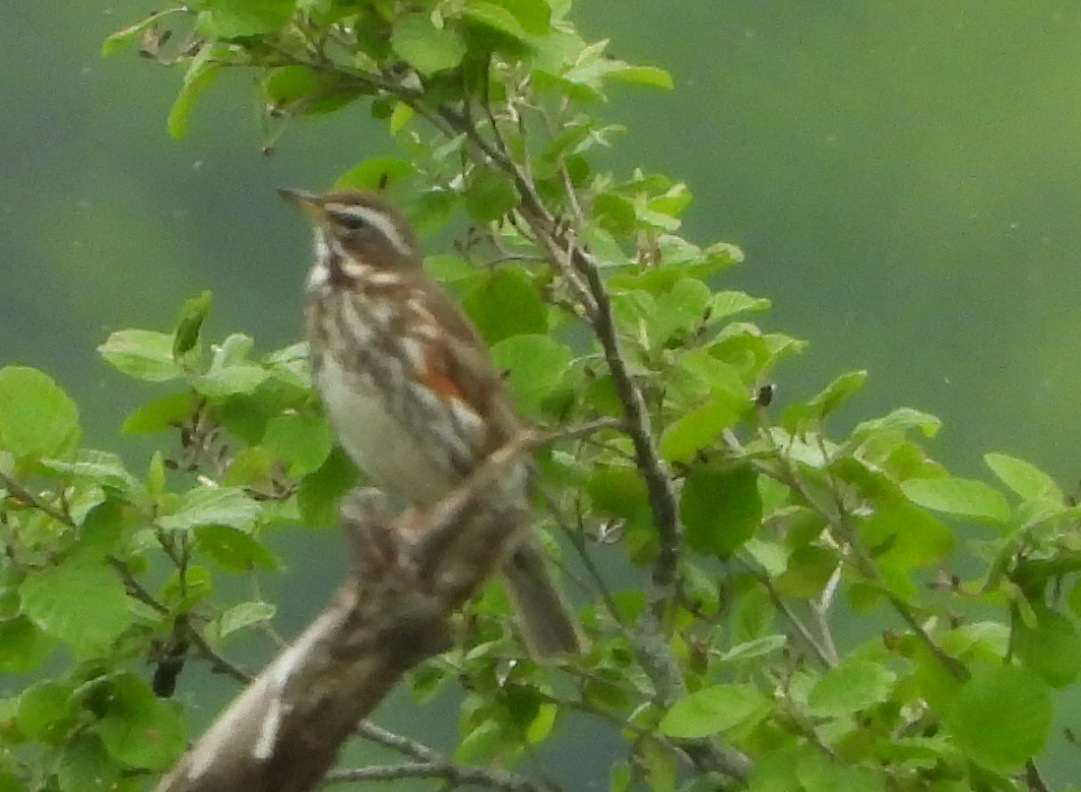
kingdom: Animalia
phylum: Chordata
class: Aves
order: Passeriformes
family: Turdidae
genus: Turdus
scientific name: Turdus iliacus
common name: Redwing
